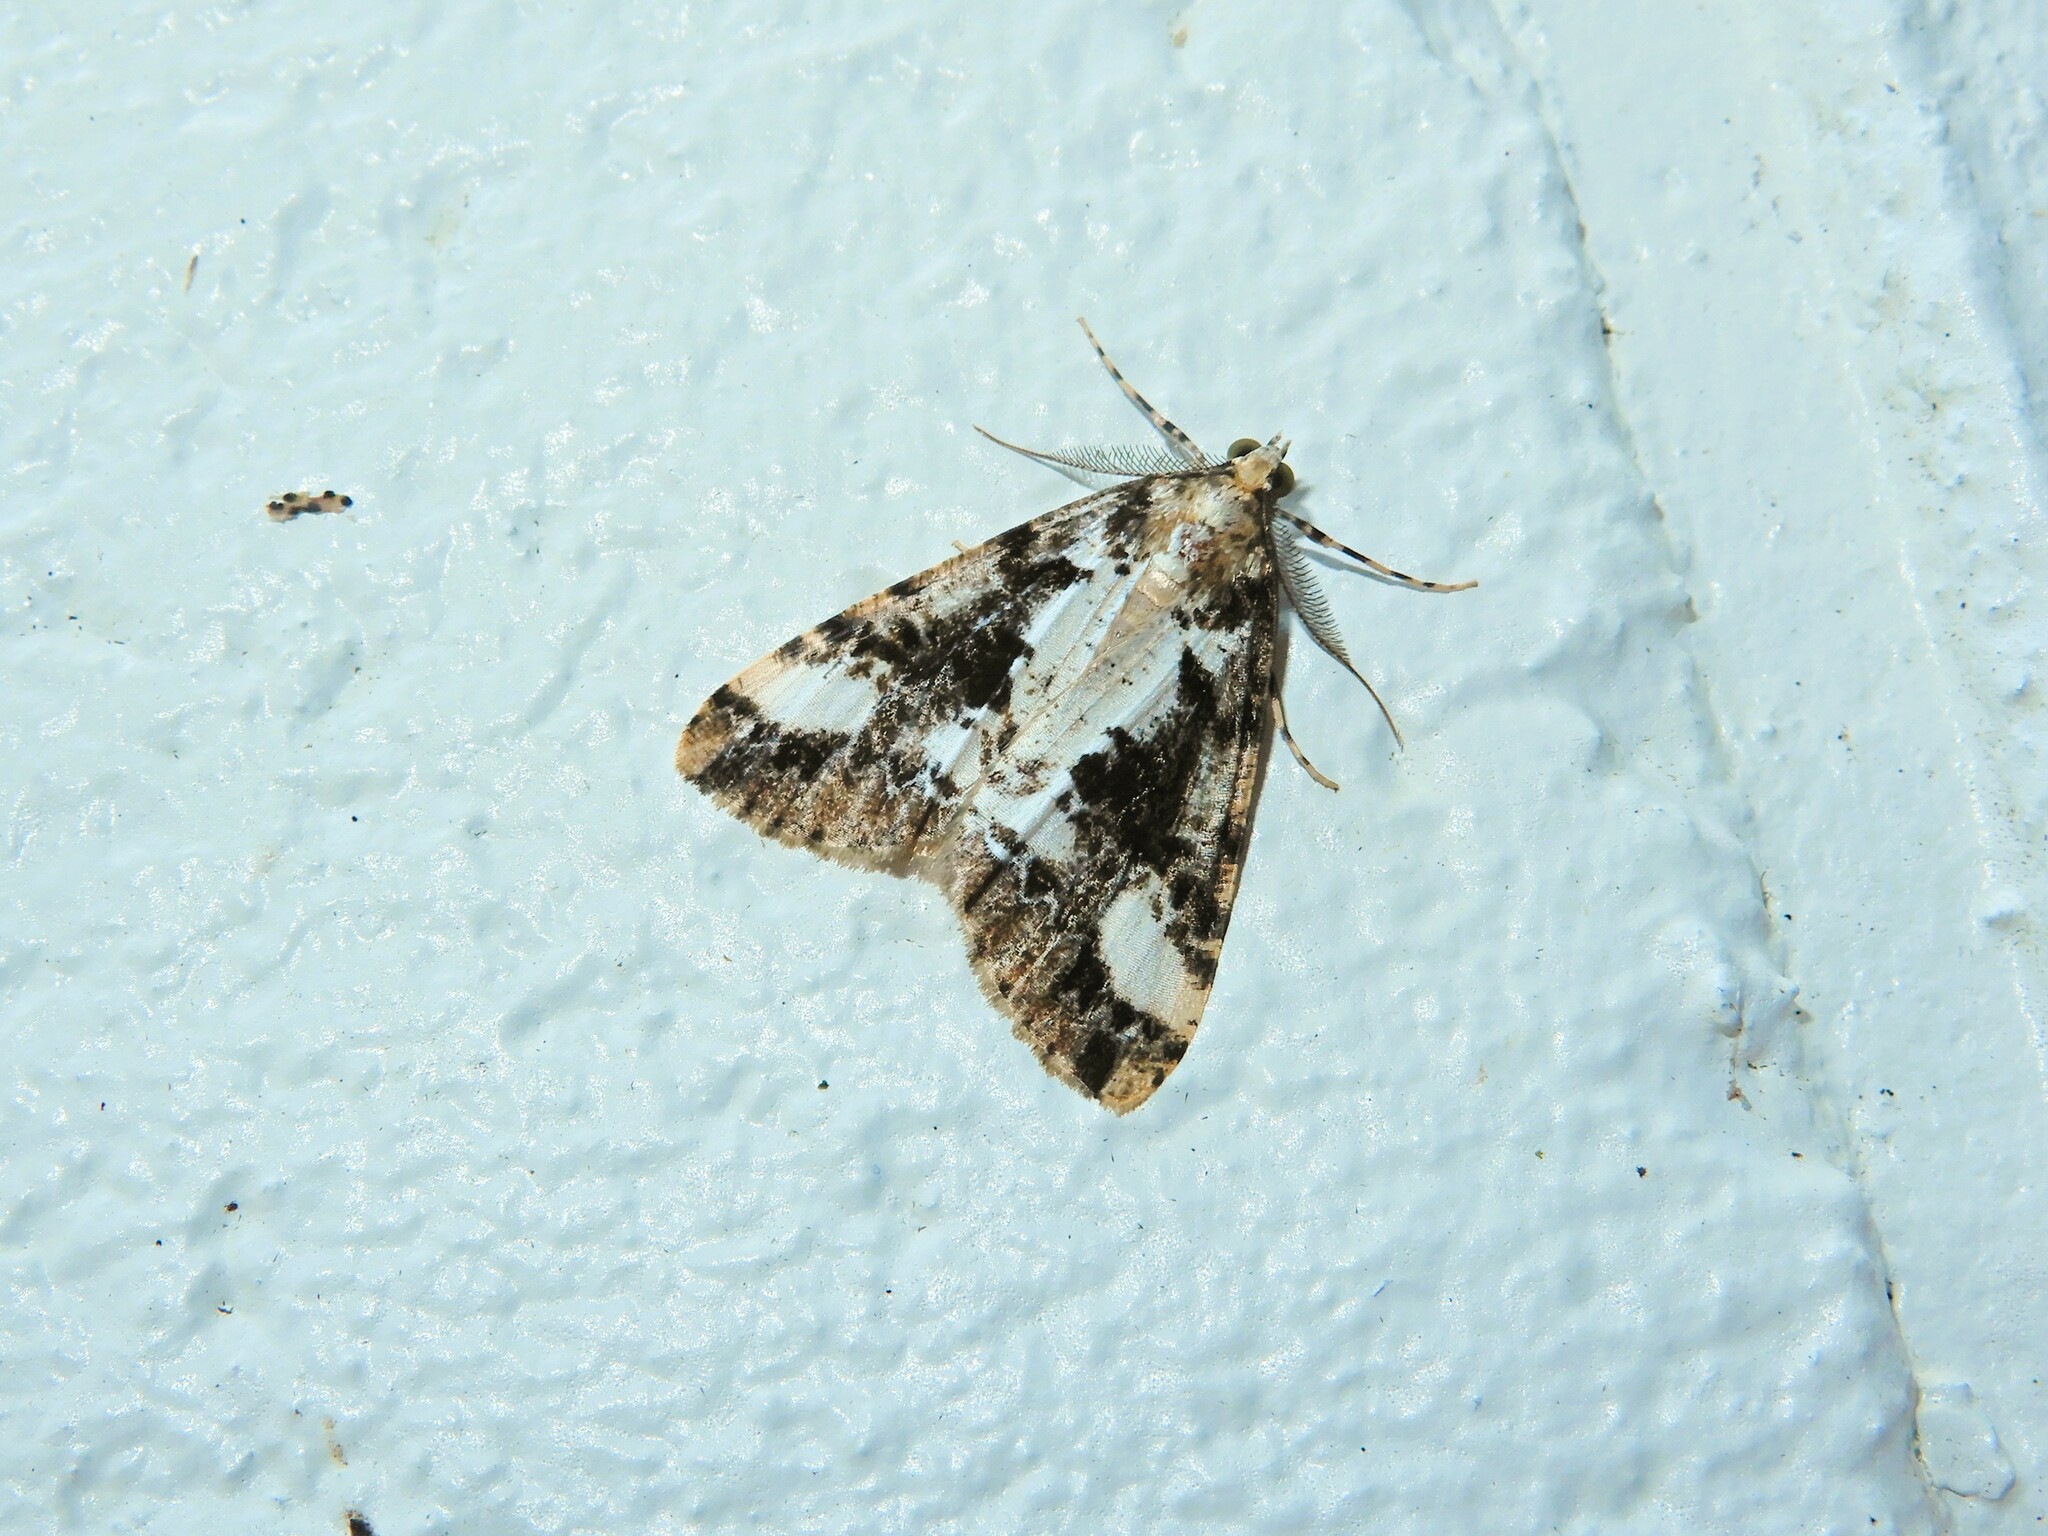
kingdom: Animalia
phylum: Arthropoda
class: Insecta
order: Lepidoptera
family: Geometridae
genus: Pseudocoremia
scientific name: Pseudocoremia leucelaea
